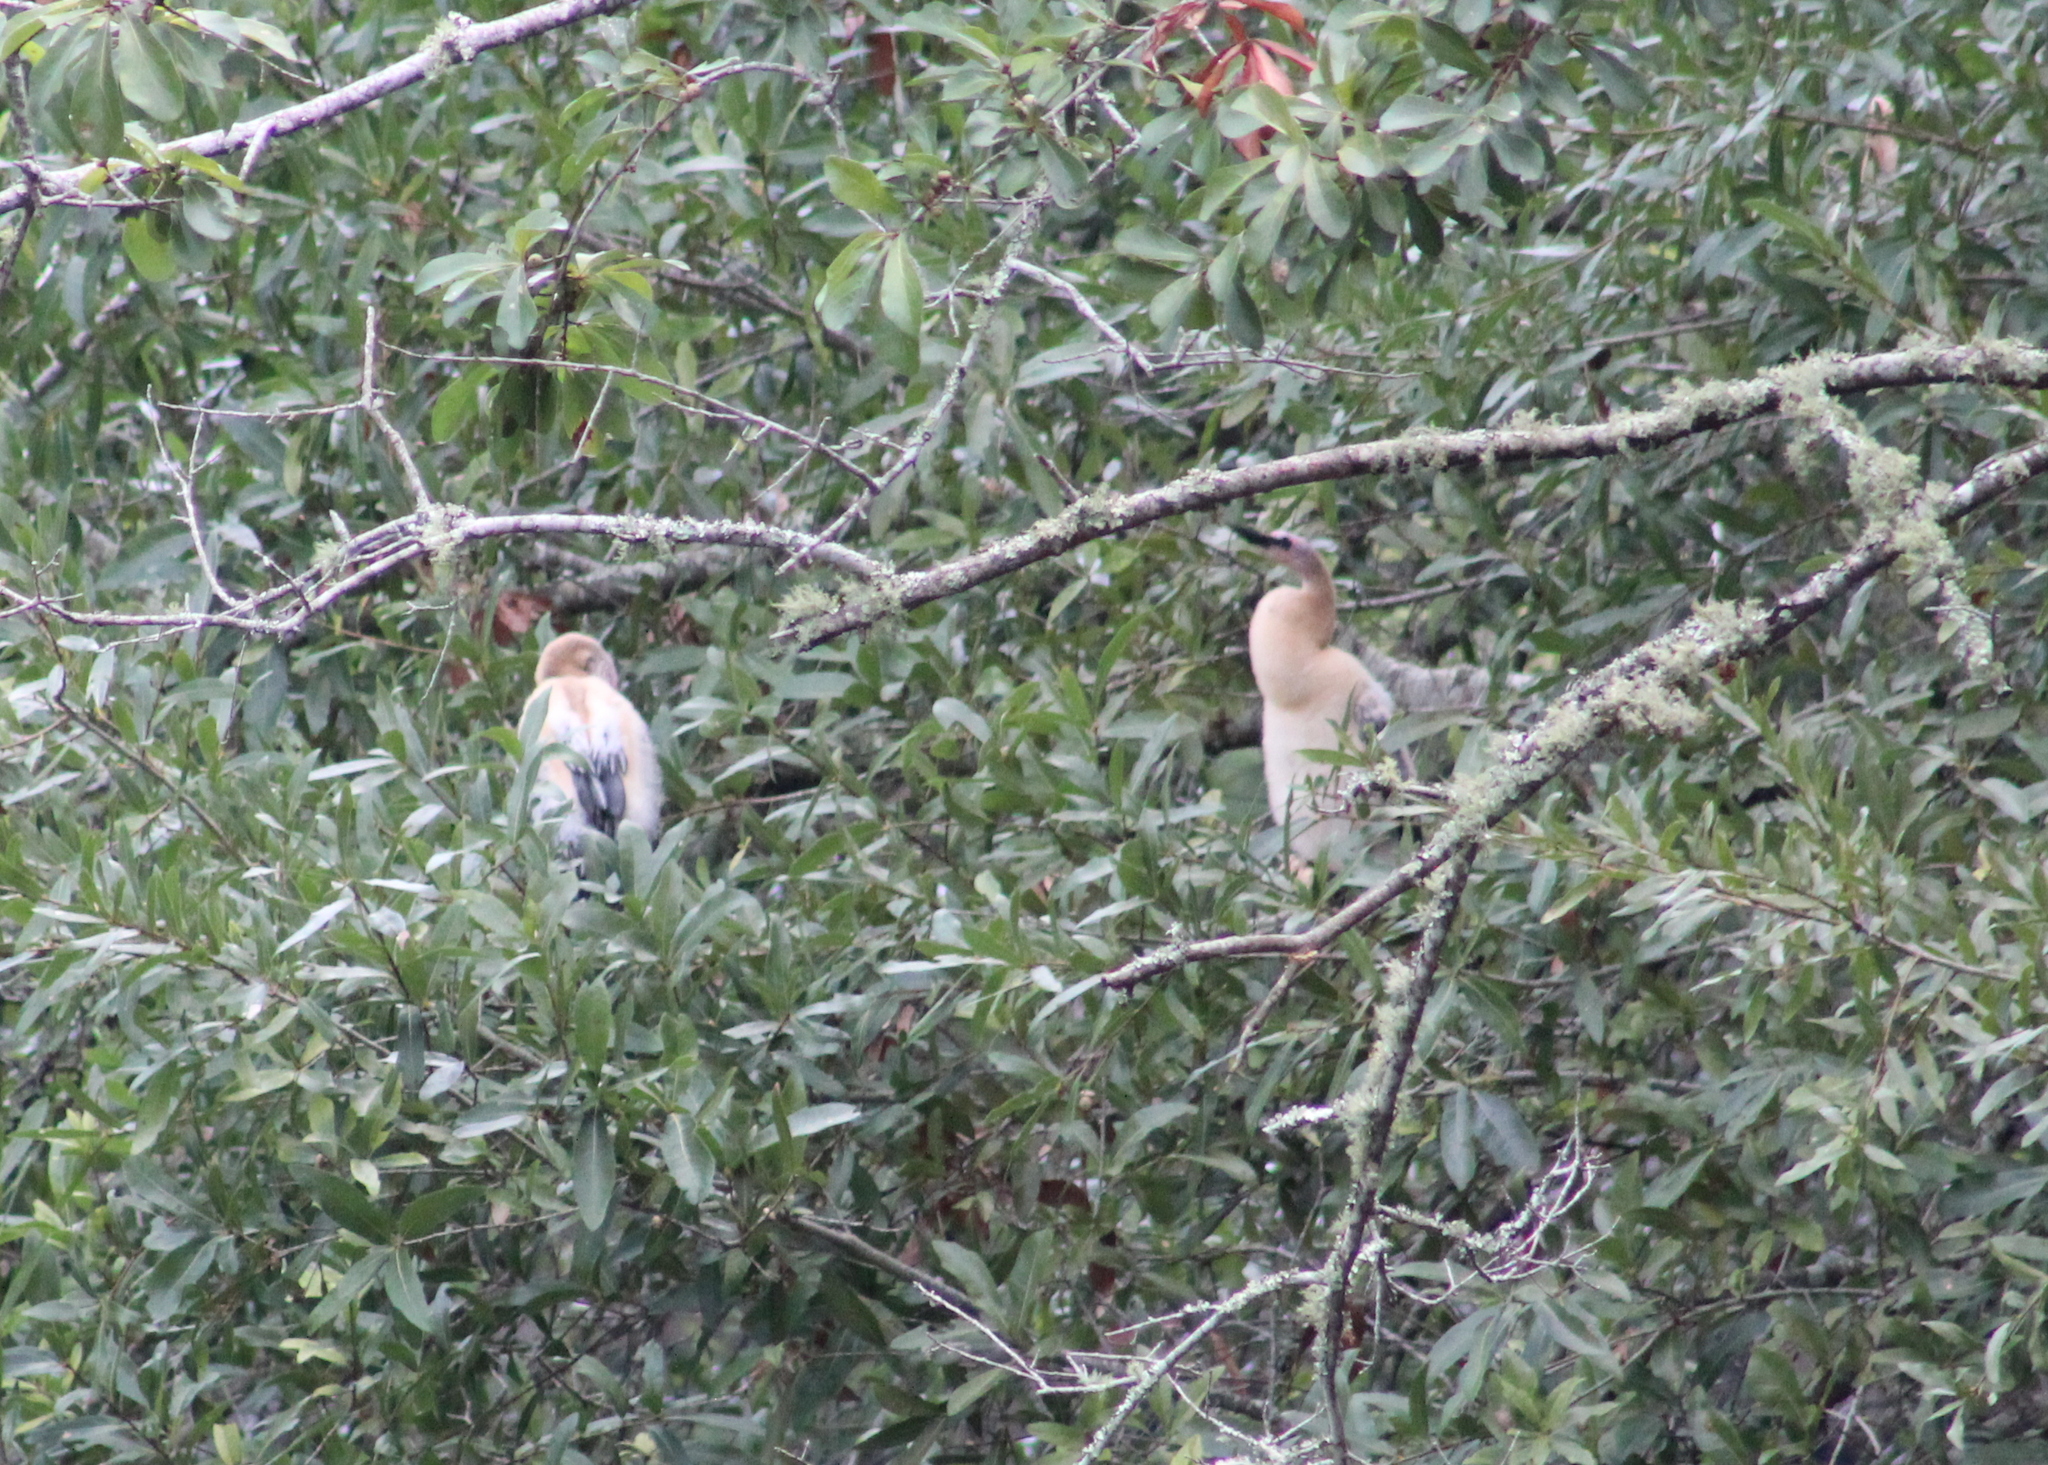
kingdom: Animalia
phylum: Chordata
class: Aves
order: Suliformes
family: Anhingidae
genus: Anhinga
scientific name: Anhinga anhinga
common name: Anhinga
